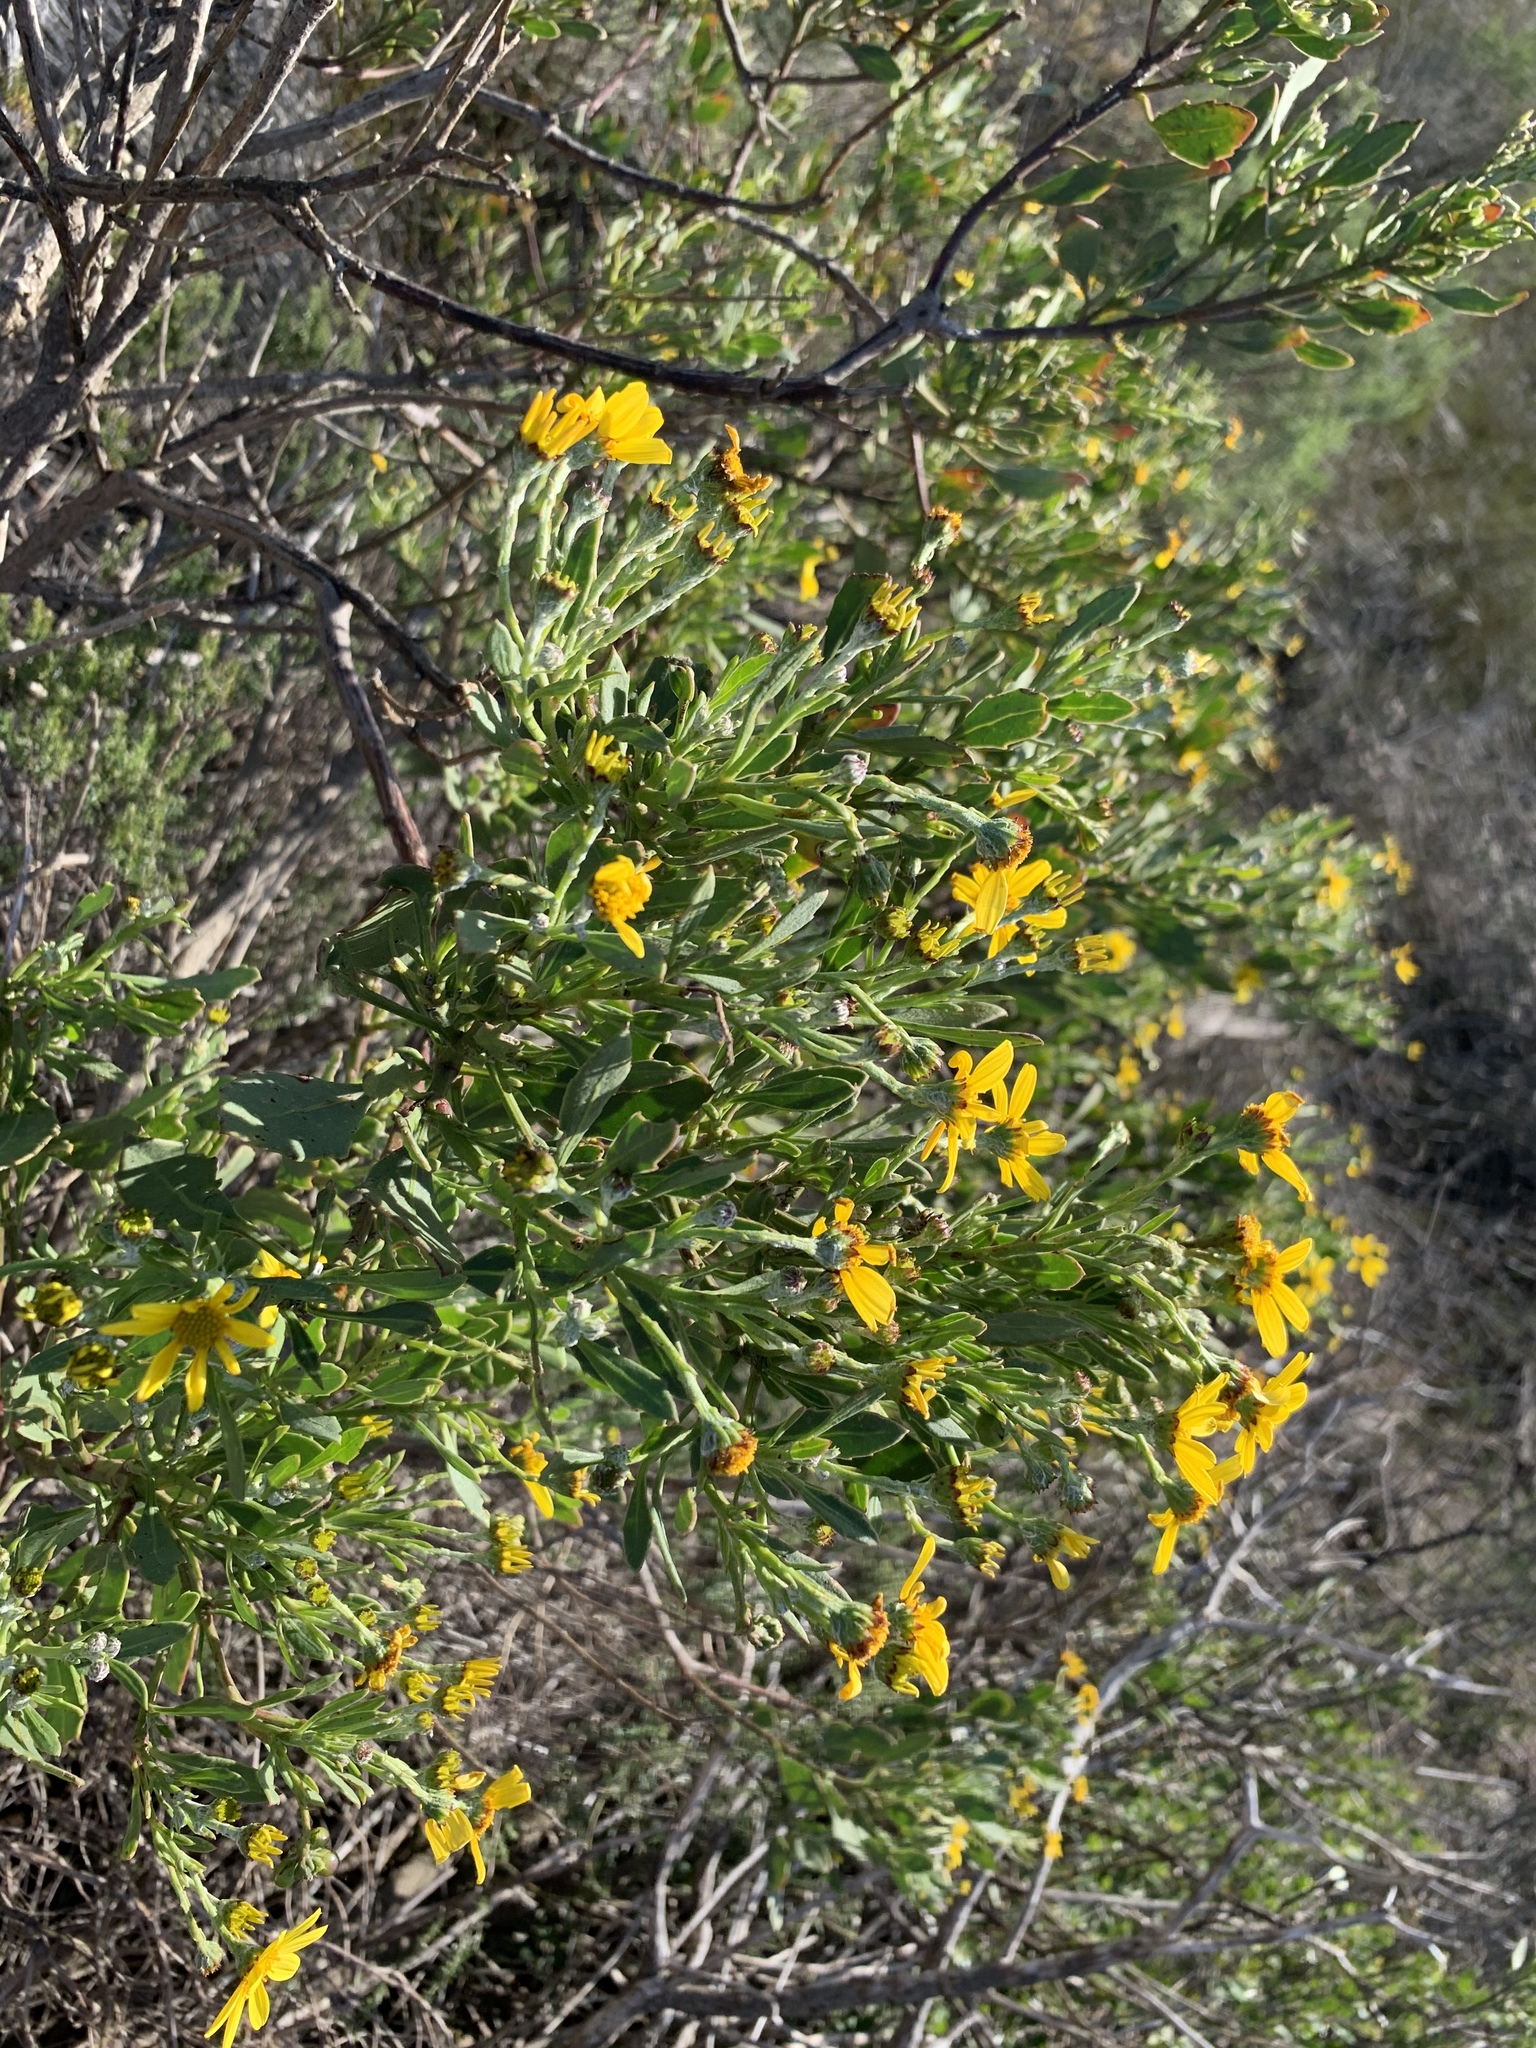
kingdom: Plantae
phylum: Tracheophyta
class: Magnoliopsida
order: Asterales
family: Asteraceae
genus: Osteospermum
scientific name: Osteospermum moniliferum
